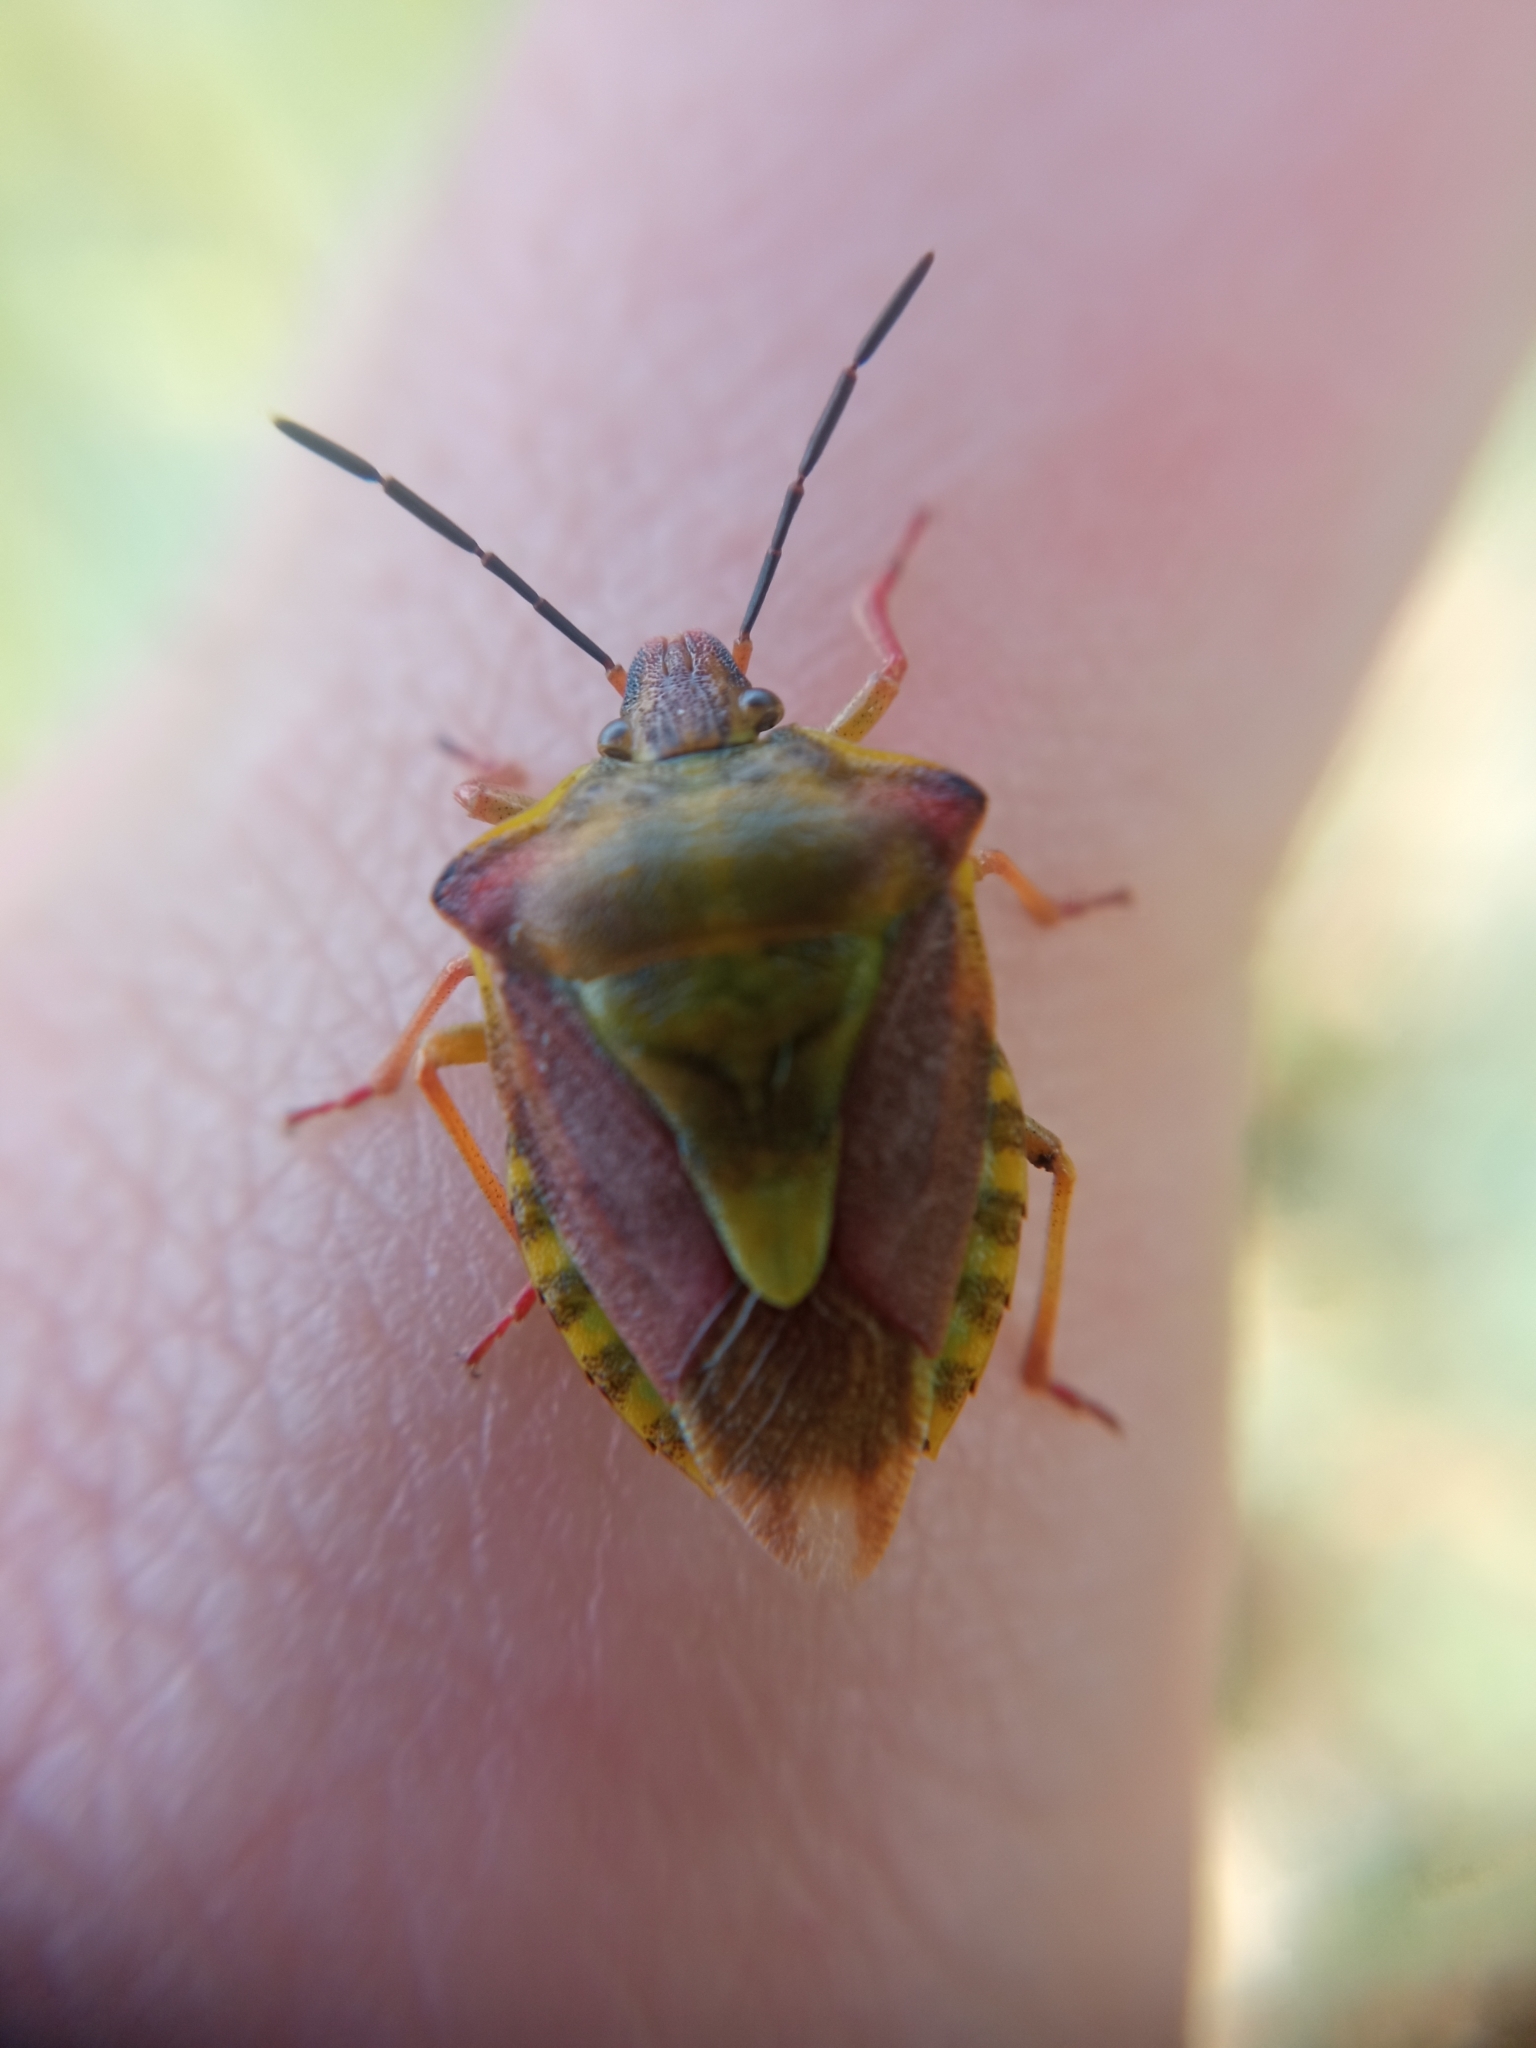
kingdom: Animalia
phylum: Arthropoda
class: Insecta
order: Hemiptera
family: Pentatomidae
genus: Carpocoris
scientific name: Carpocoris purpureipennis
